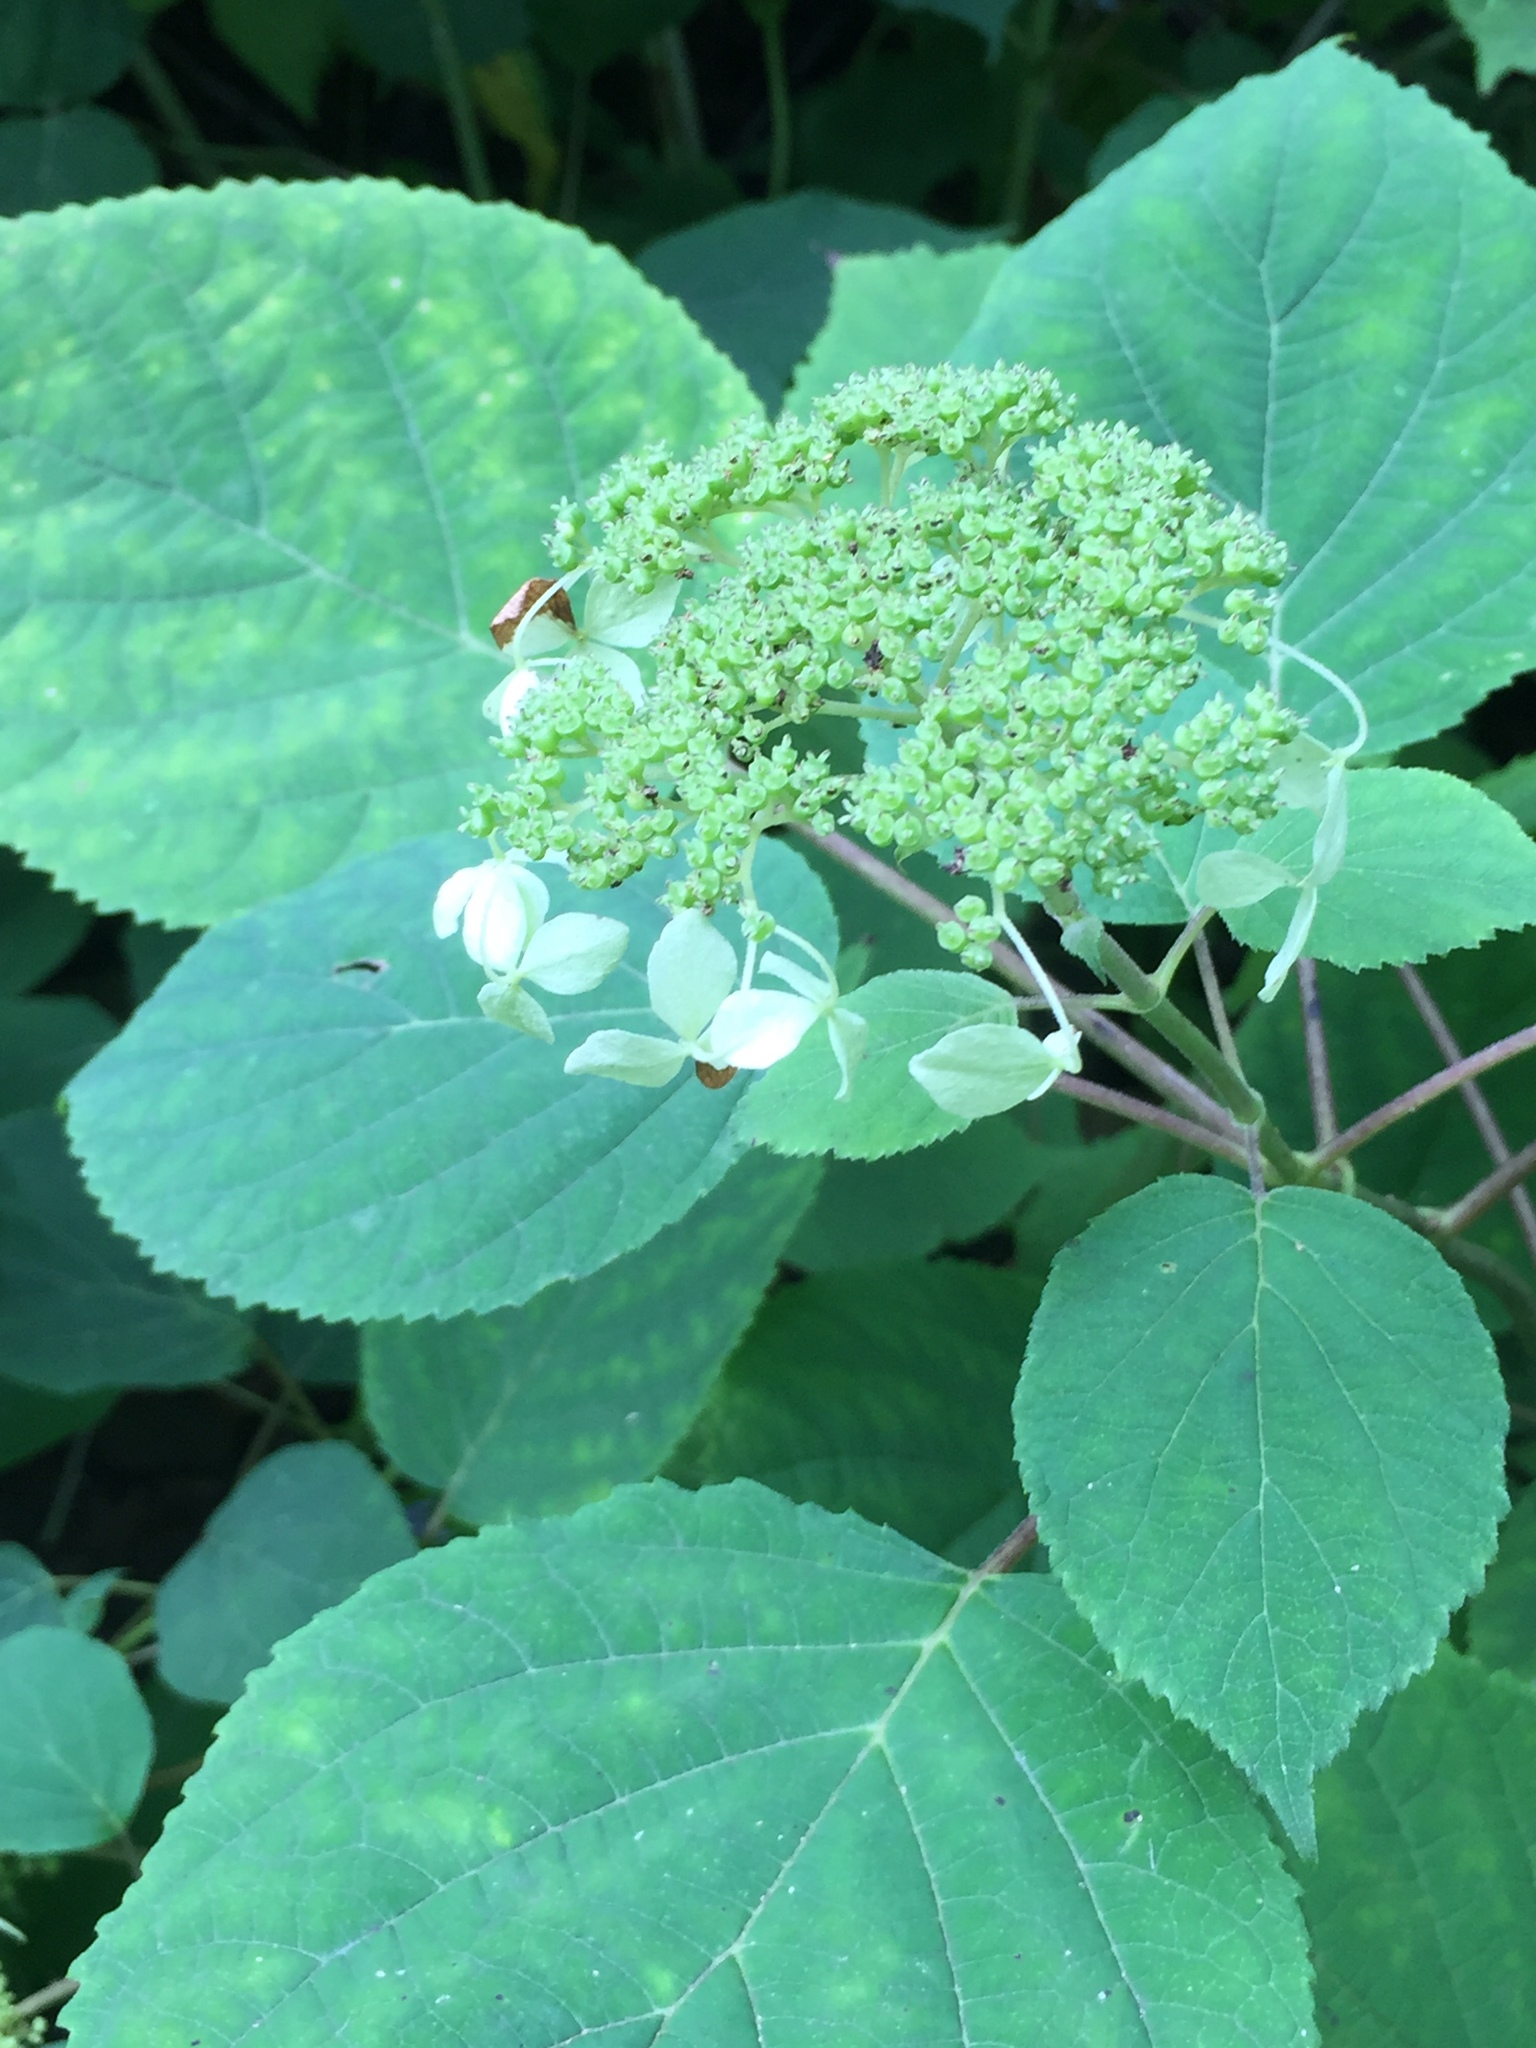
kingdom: Plantae
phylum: Tracheophyta
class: Magnoliopsida
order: Cornales
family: Hydrangeaceae
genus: Hydrangea
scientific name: Hydrangea arborescens
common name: Sevenbark
